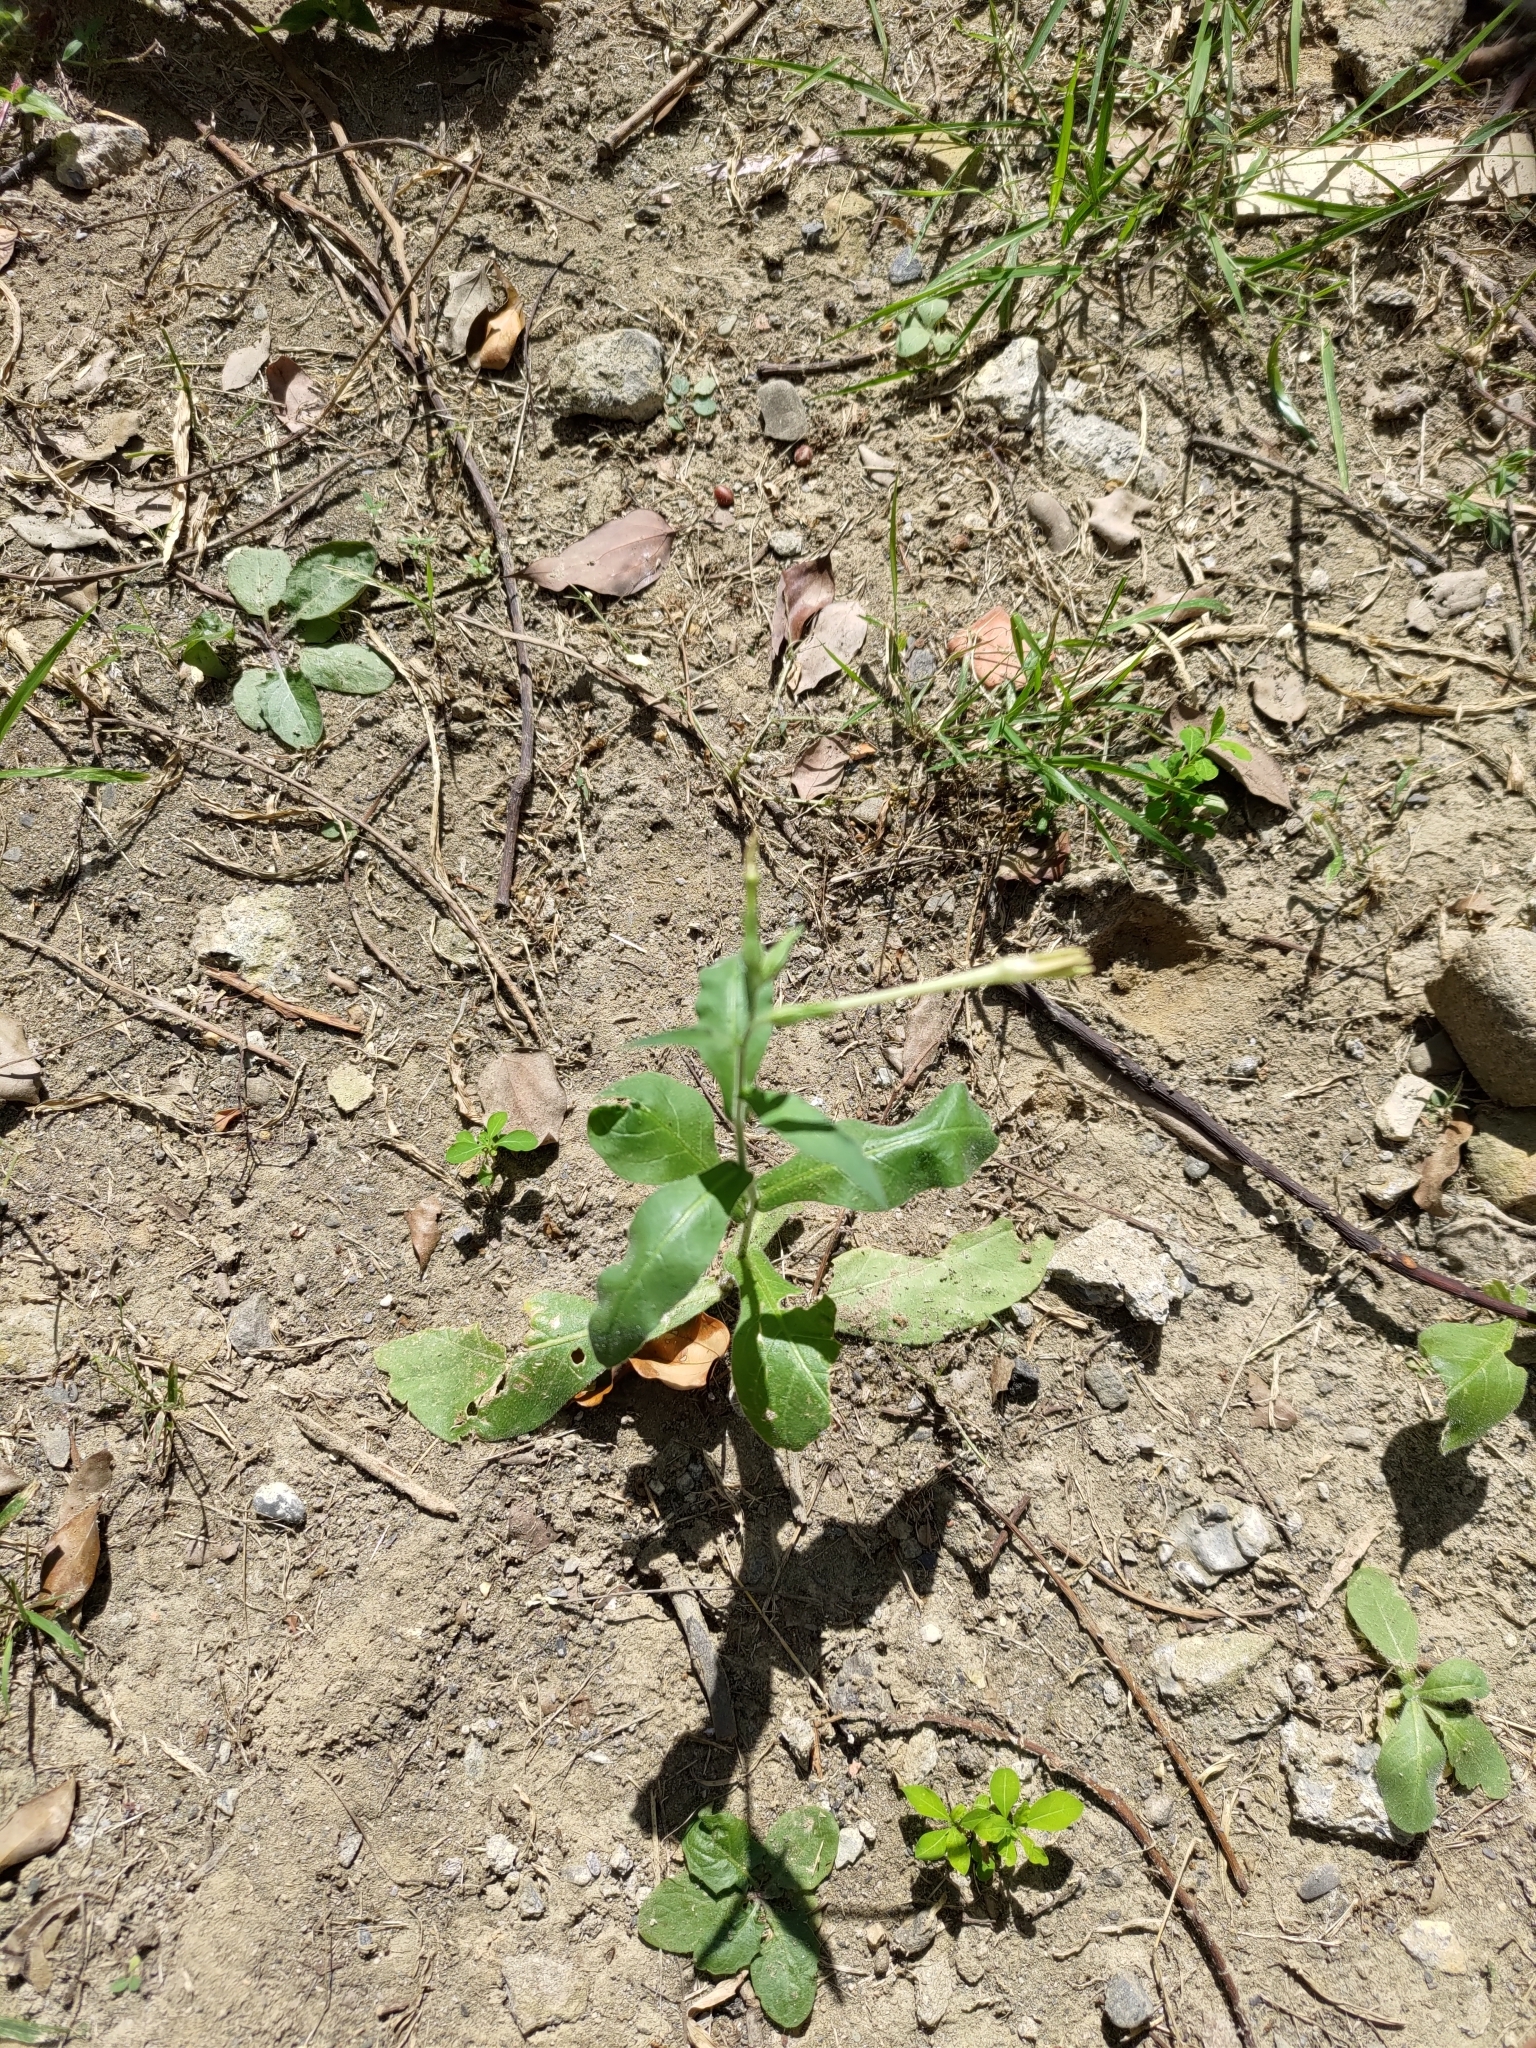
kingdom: Plantae
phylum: Tracheophyta
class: Magnoliopsida
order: Solanales
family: Solanaceae
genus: Nicotiana
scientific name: Nicotiana plumbaginifolia
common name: Tex-mex tobacco
